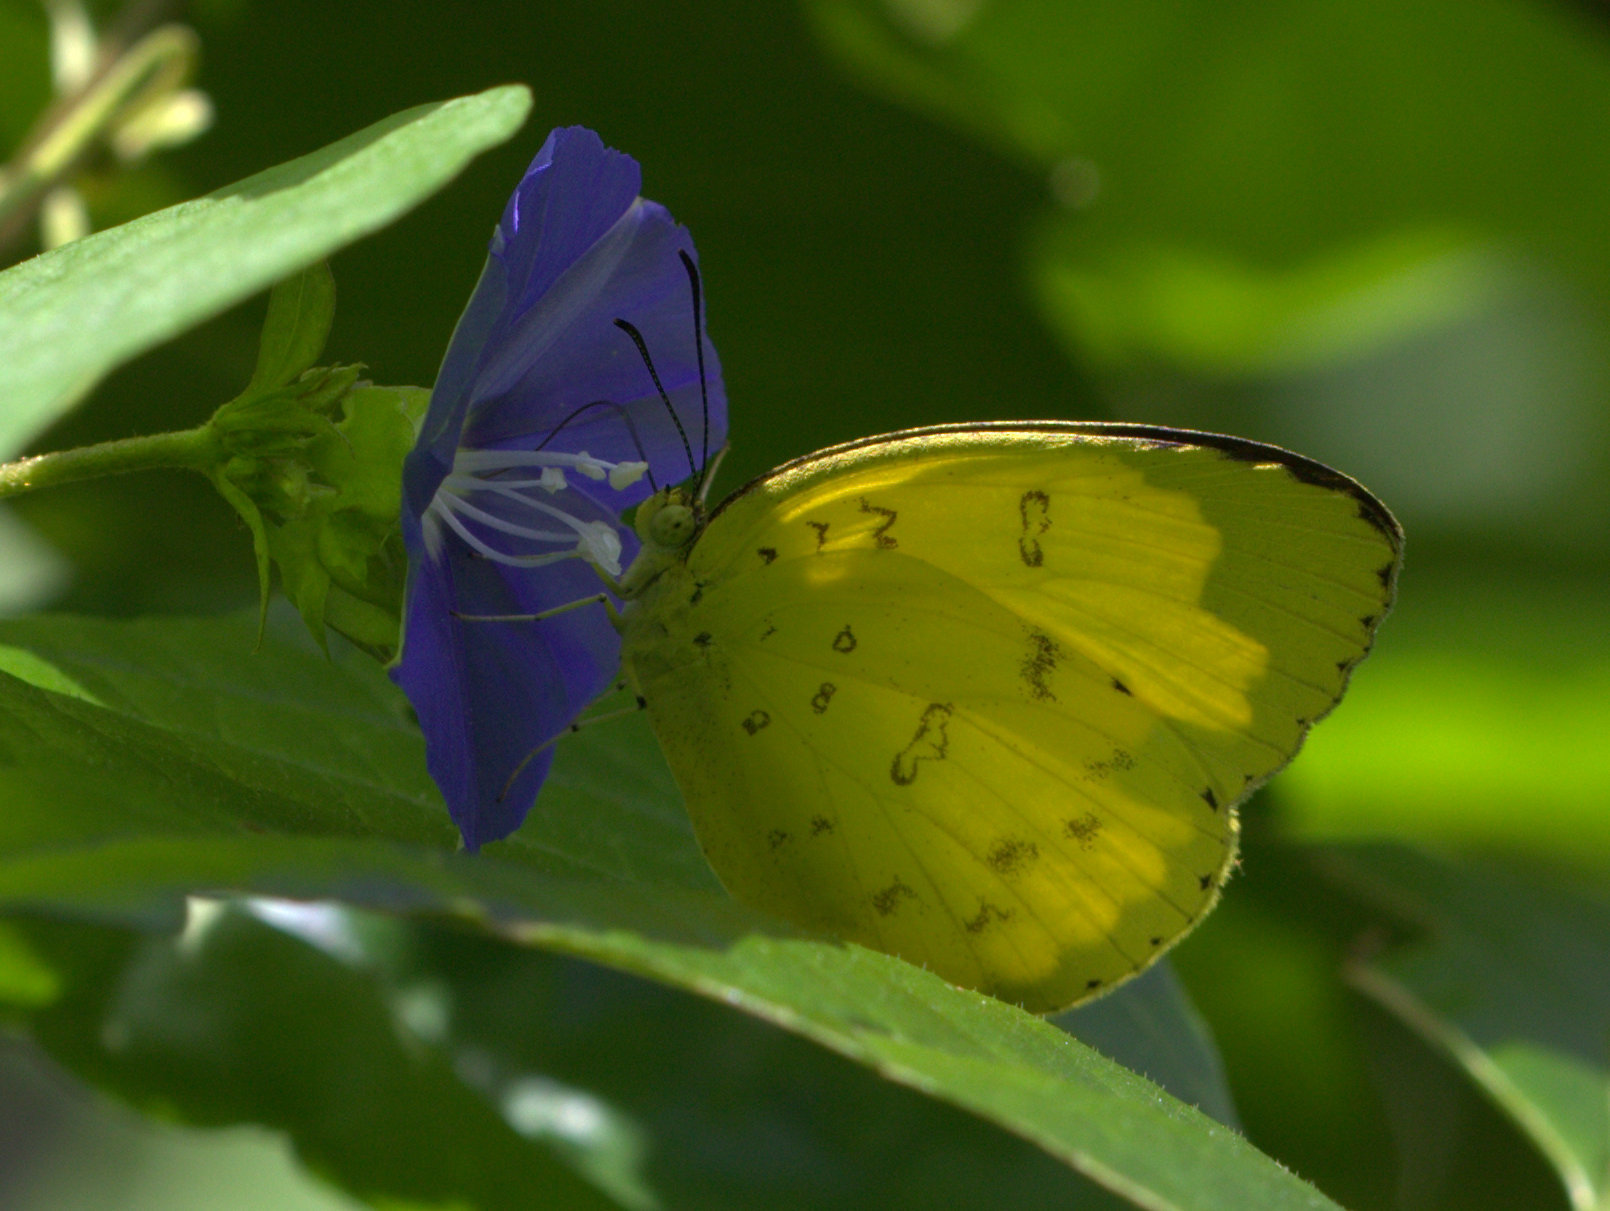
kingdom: Animalia
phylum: Arthropoda
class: Insecta
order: Lepidoptera
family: Pieridae
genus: Eurema
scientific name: Eurema blanda
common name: Three-spot grass yellow
